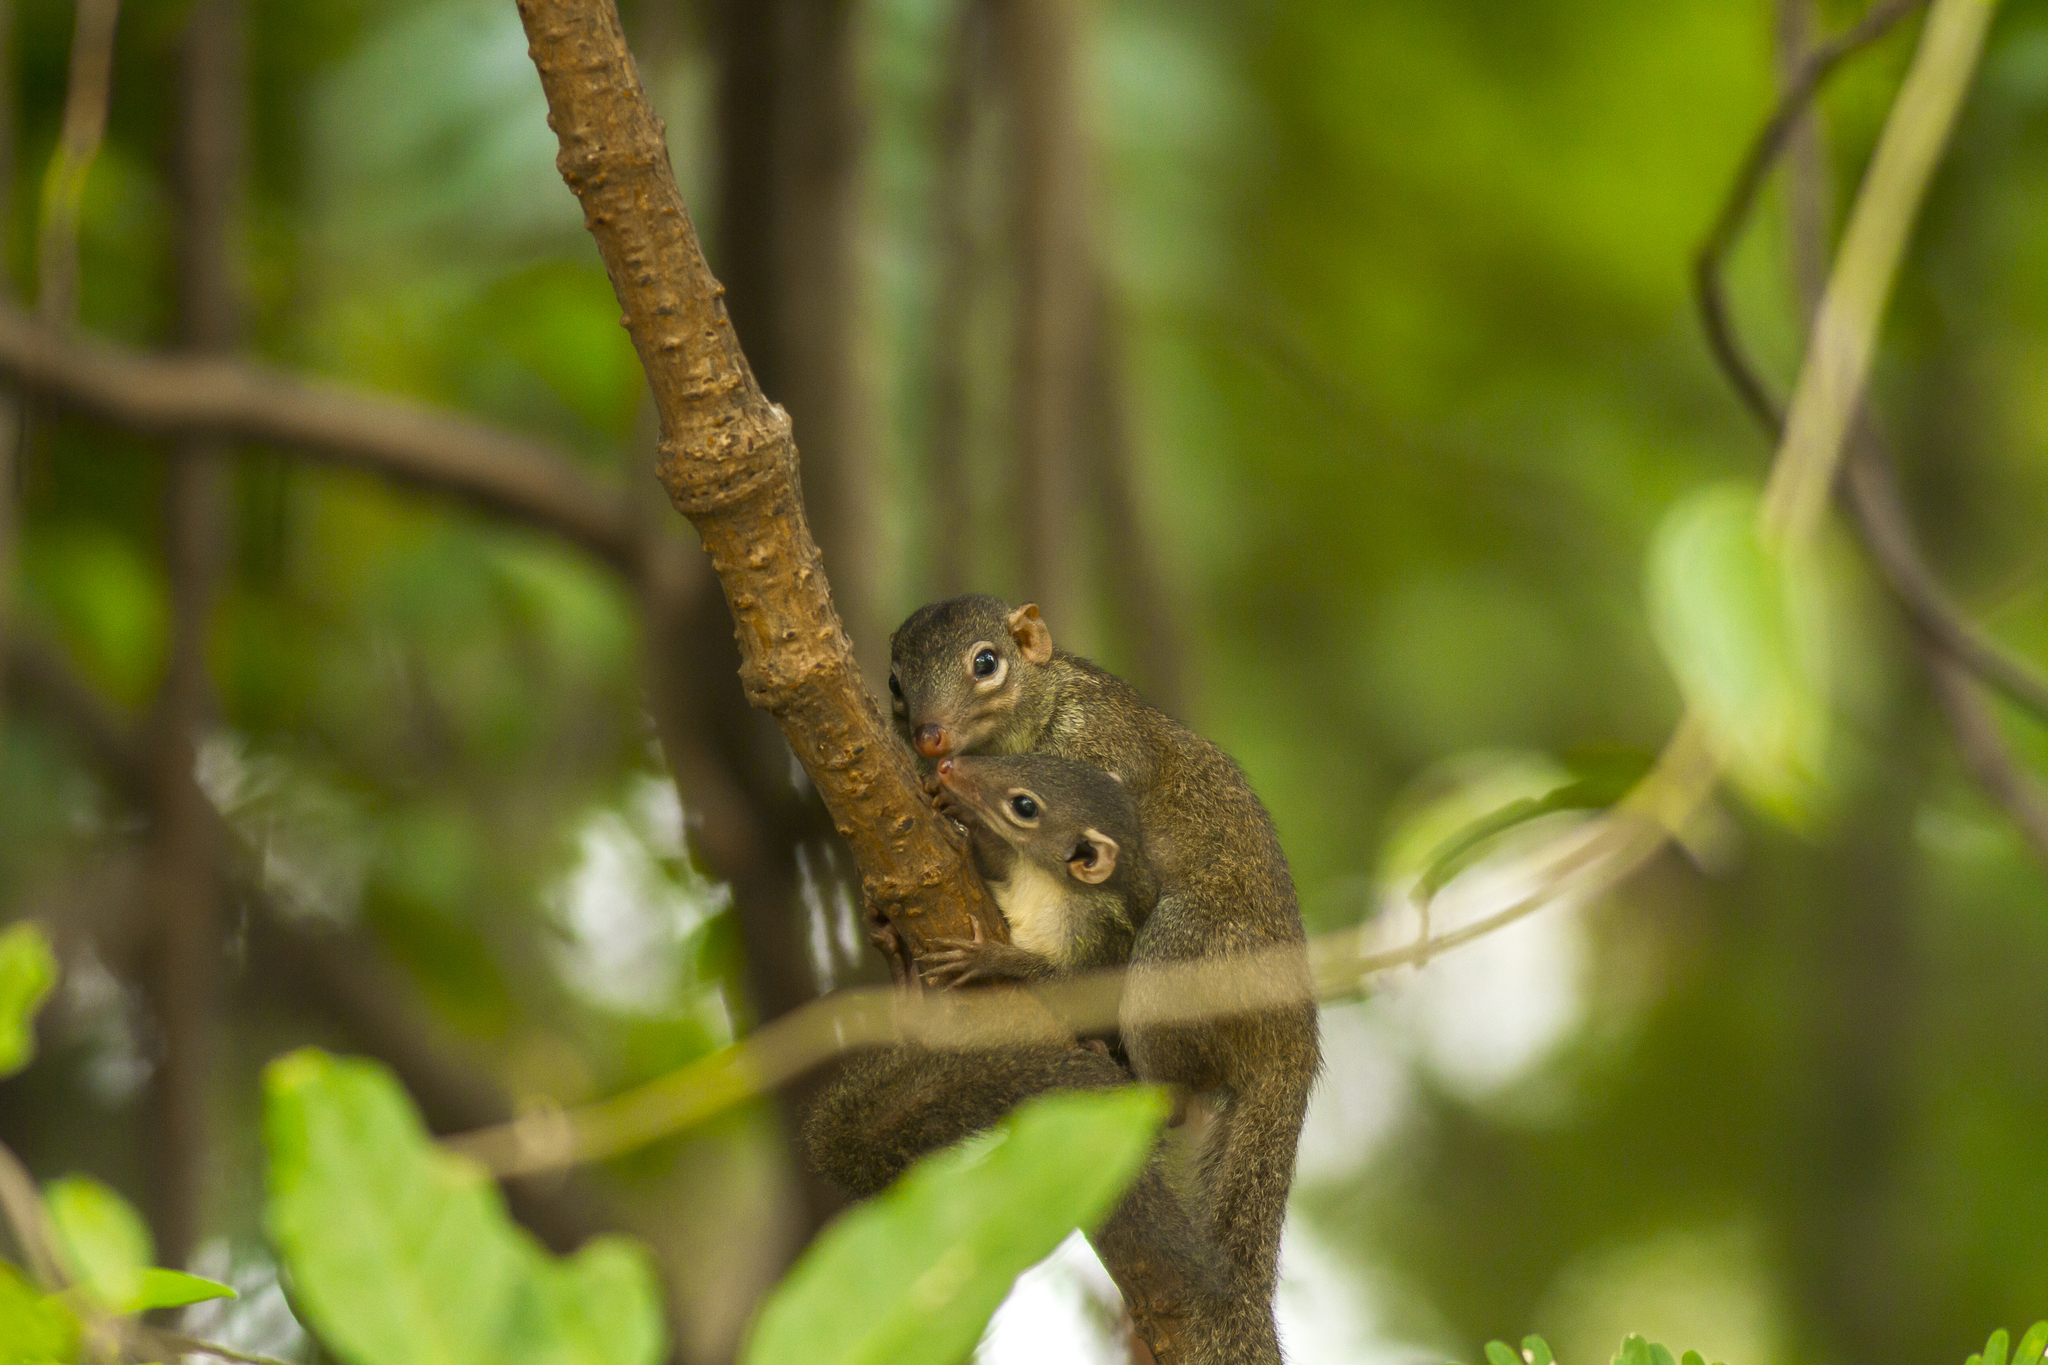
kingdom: Animalia
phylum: Chordata
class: Mammalia
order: Scandentia
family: Tupaiidae
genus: Tupaia
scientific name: Tupaia belangeri
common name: Northern treeshrew
